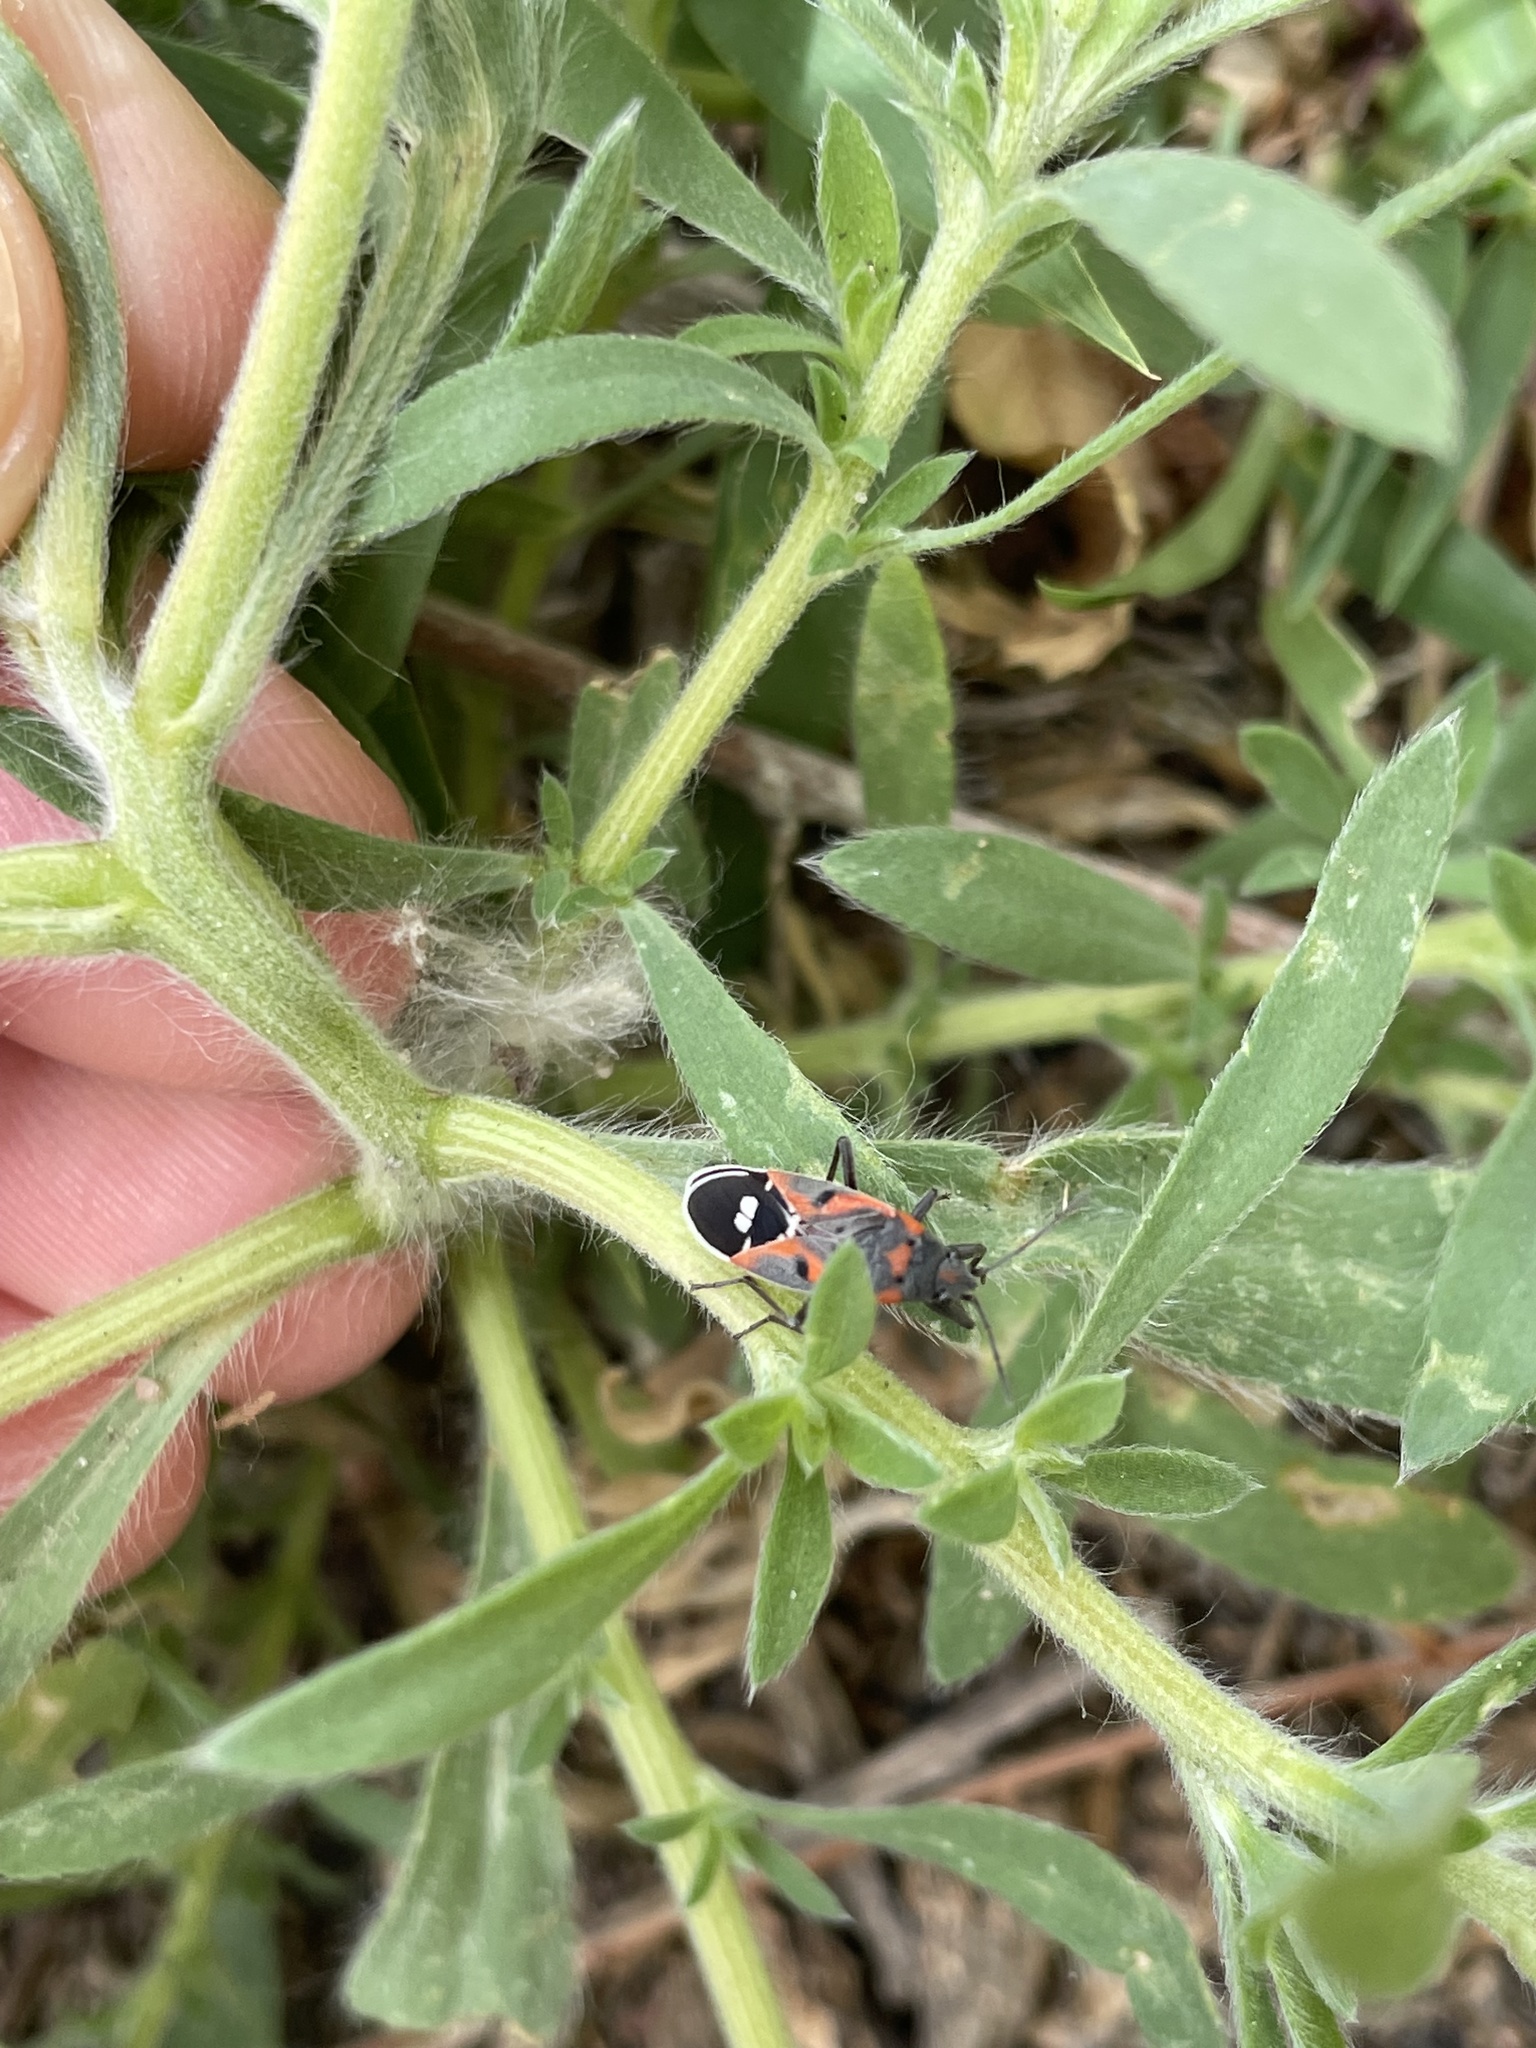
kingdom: Animalia
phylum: Arthropoda
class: Insecta
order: Hemiptera
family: Lygaeidae
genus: Lygaeus
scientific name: Lygaeus kalmii
